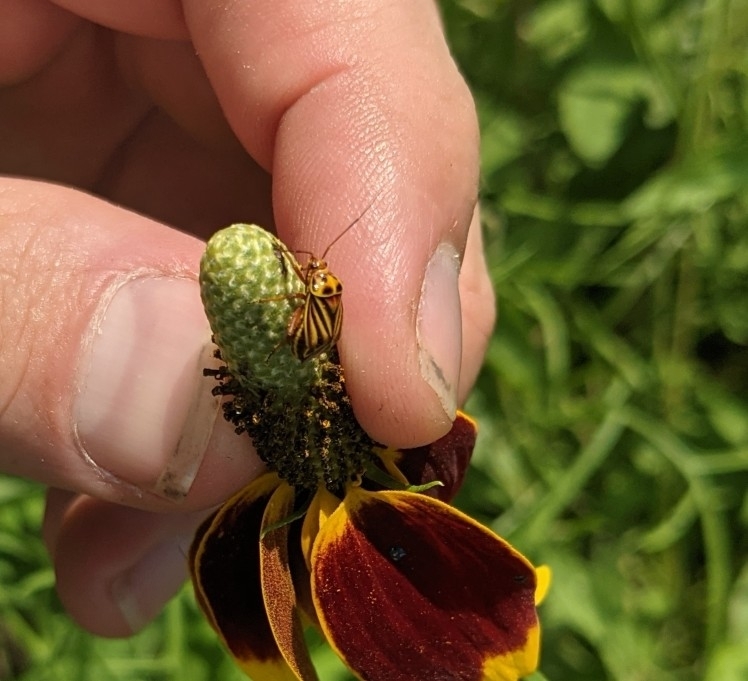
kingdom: Animalia
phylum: Arthropoda
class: Insecta
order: Hemiptera
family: Miridae
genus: Calocoris
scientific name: Calocoris barberi
